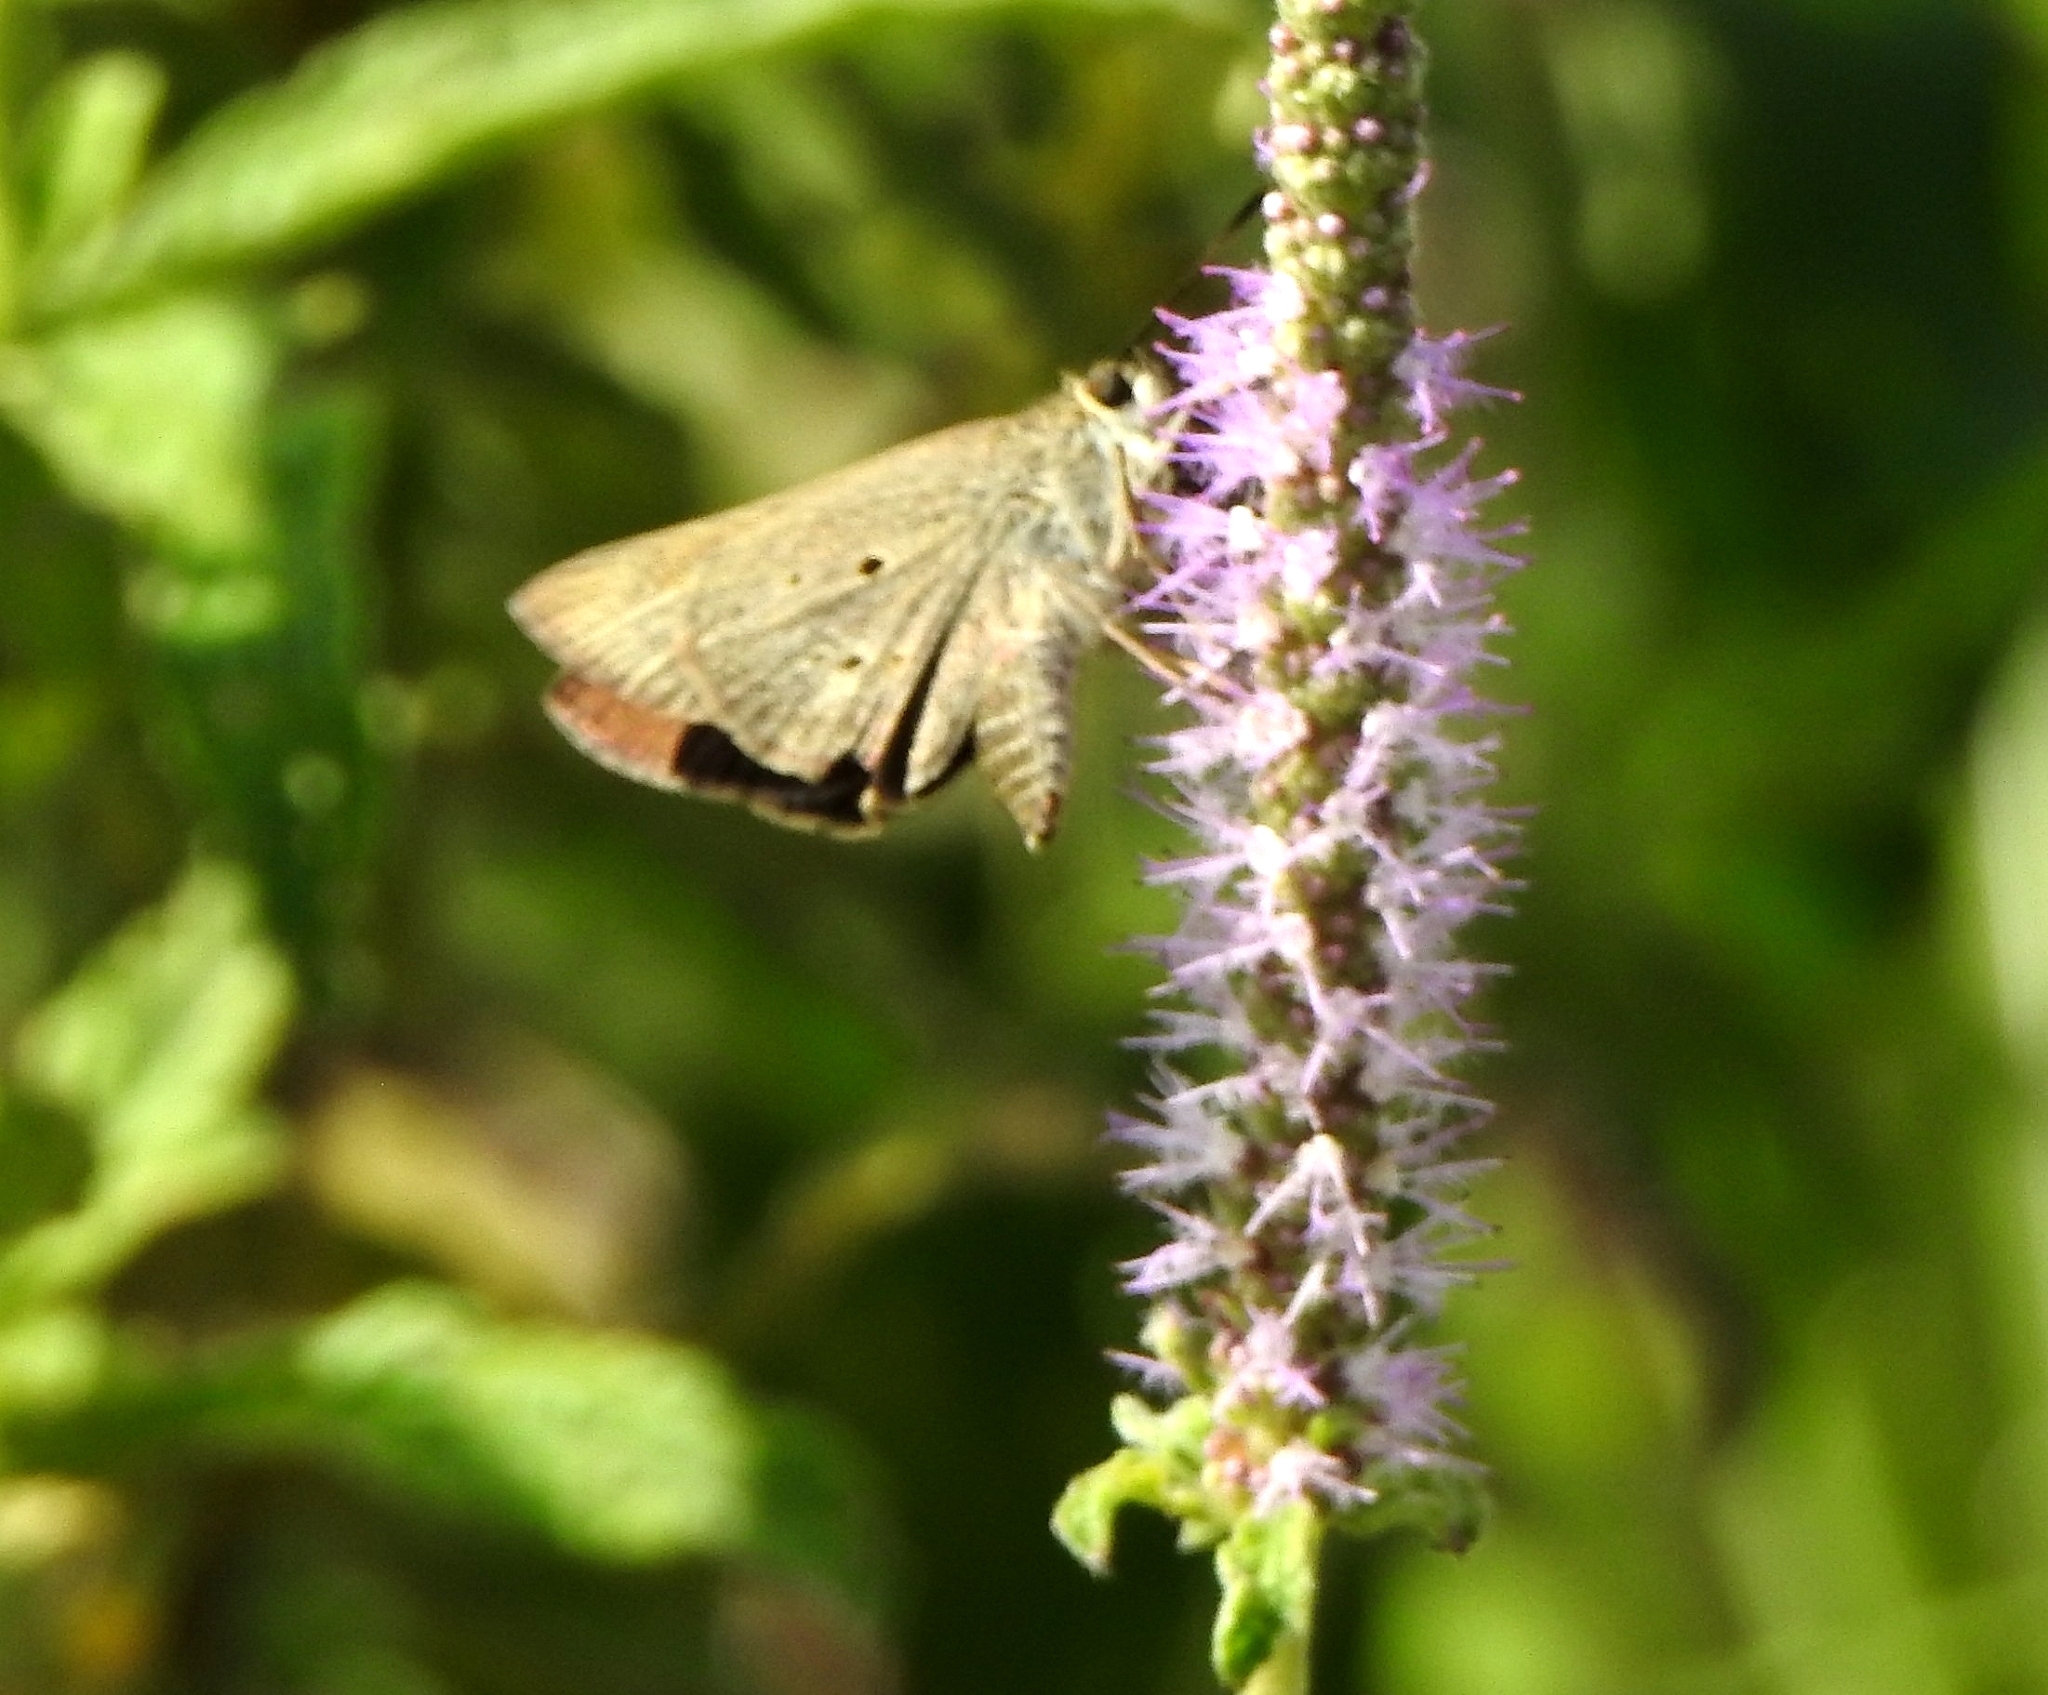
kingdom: Animalia
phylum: Arthropoda
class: Insecta
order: Lepidoptera
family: Hesperiidae
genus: Suastus
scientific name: Suastus gremius
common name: Indian palm bob
